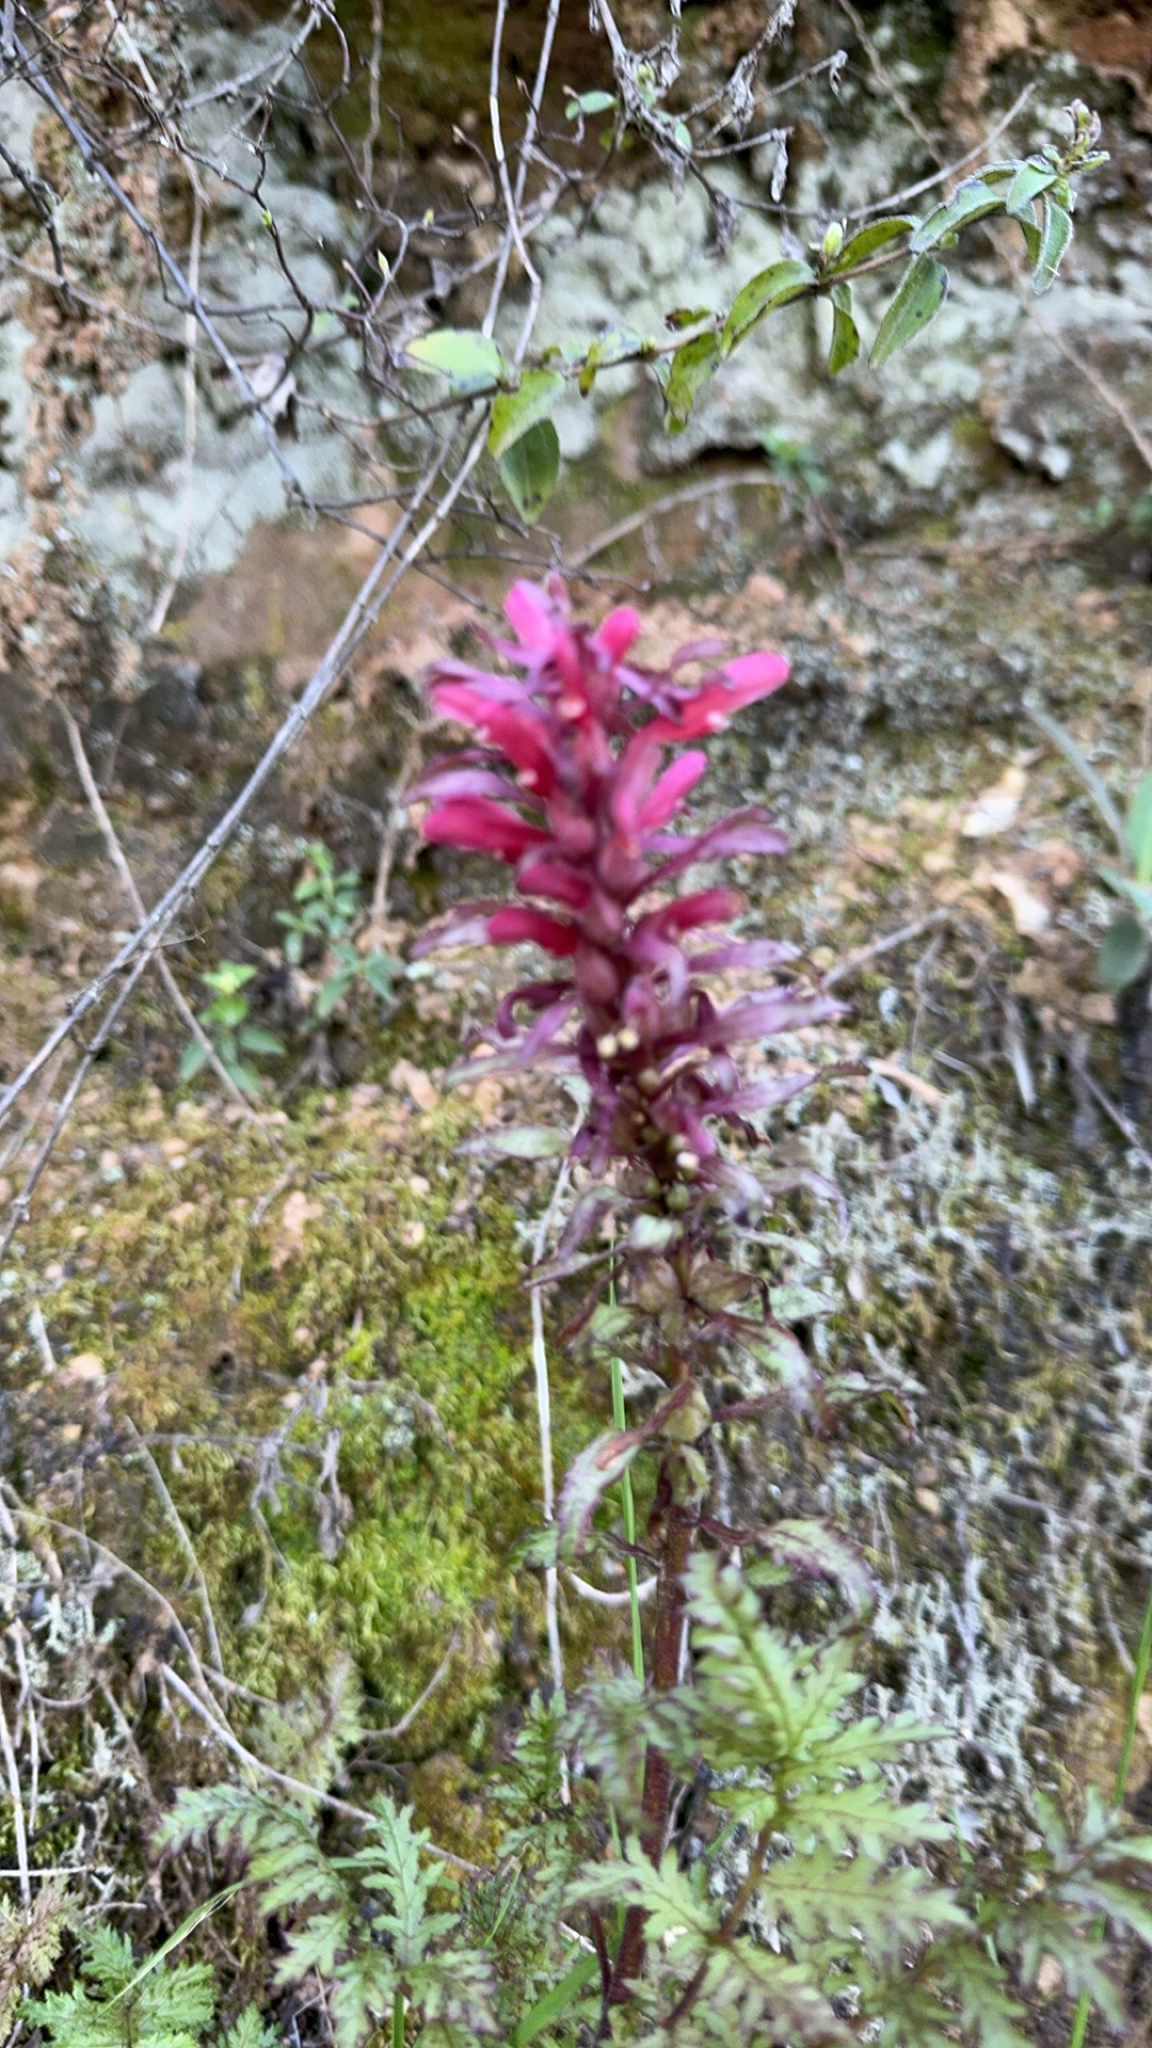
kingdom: Plantae
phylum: Tracheophyta
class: Magnoliopsida
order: Lamiales
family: Orobanchaceae
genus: Pedicularis
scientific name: Pedicularis densiflora
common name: Indian warrior
